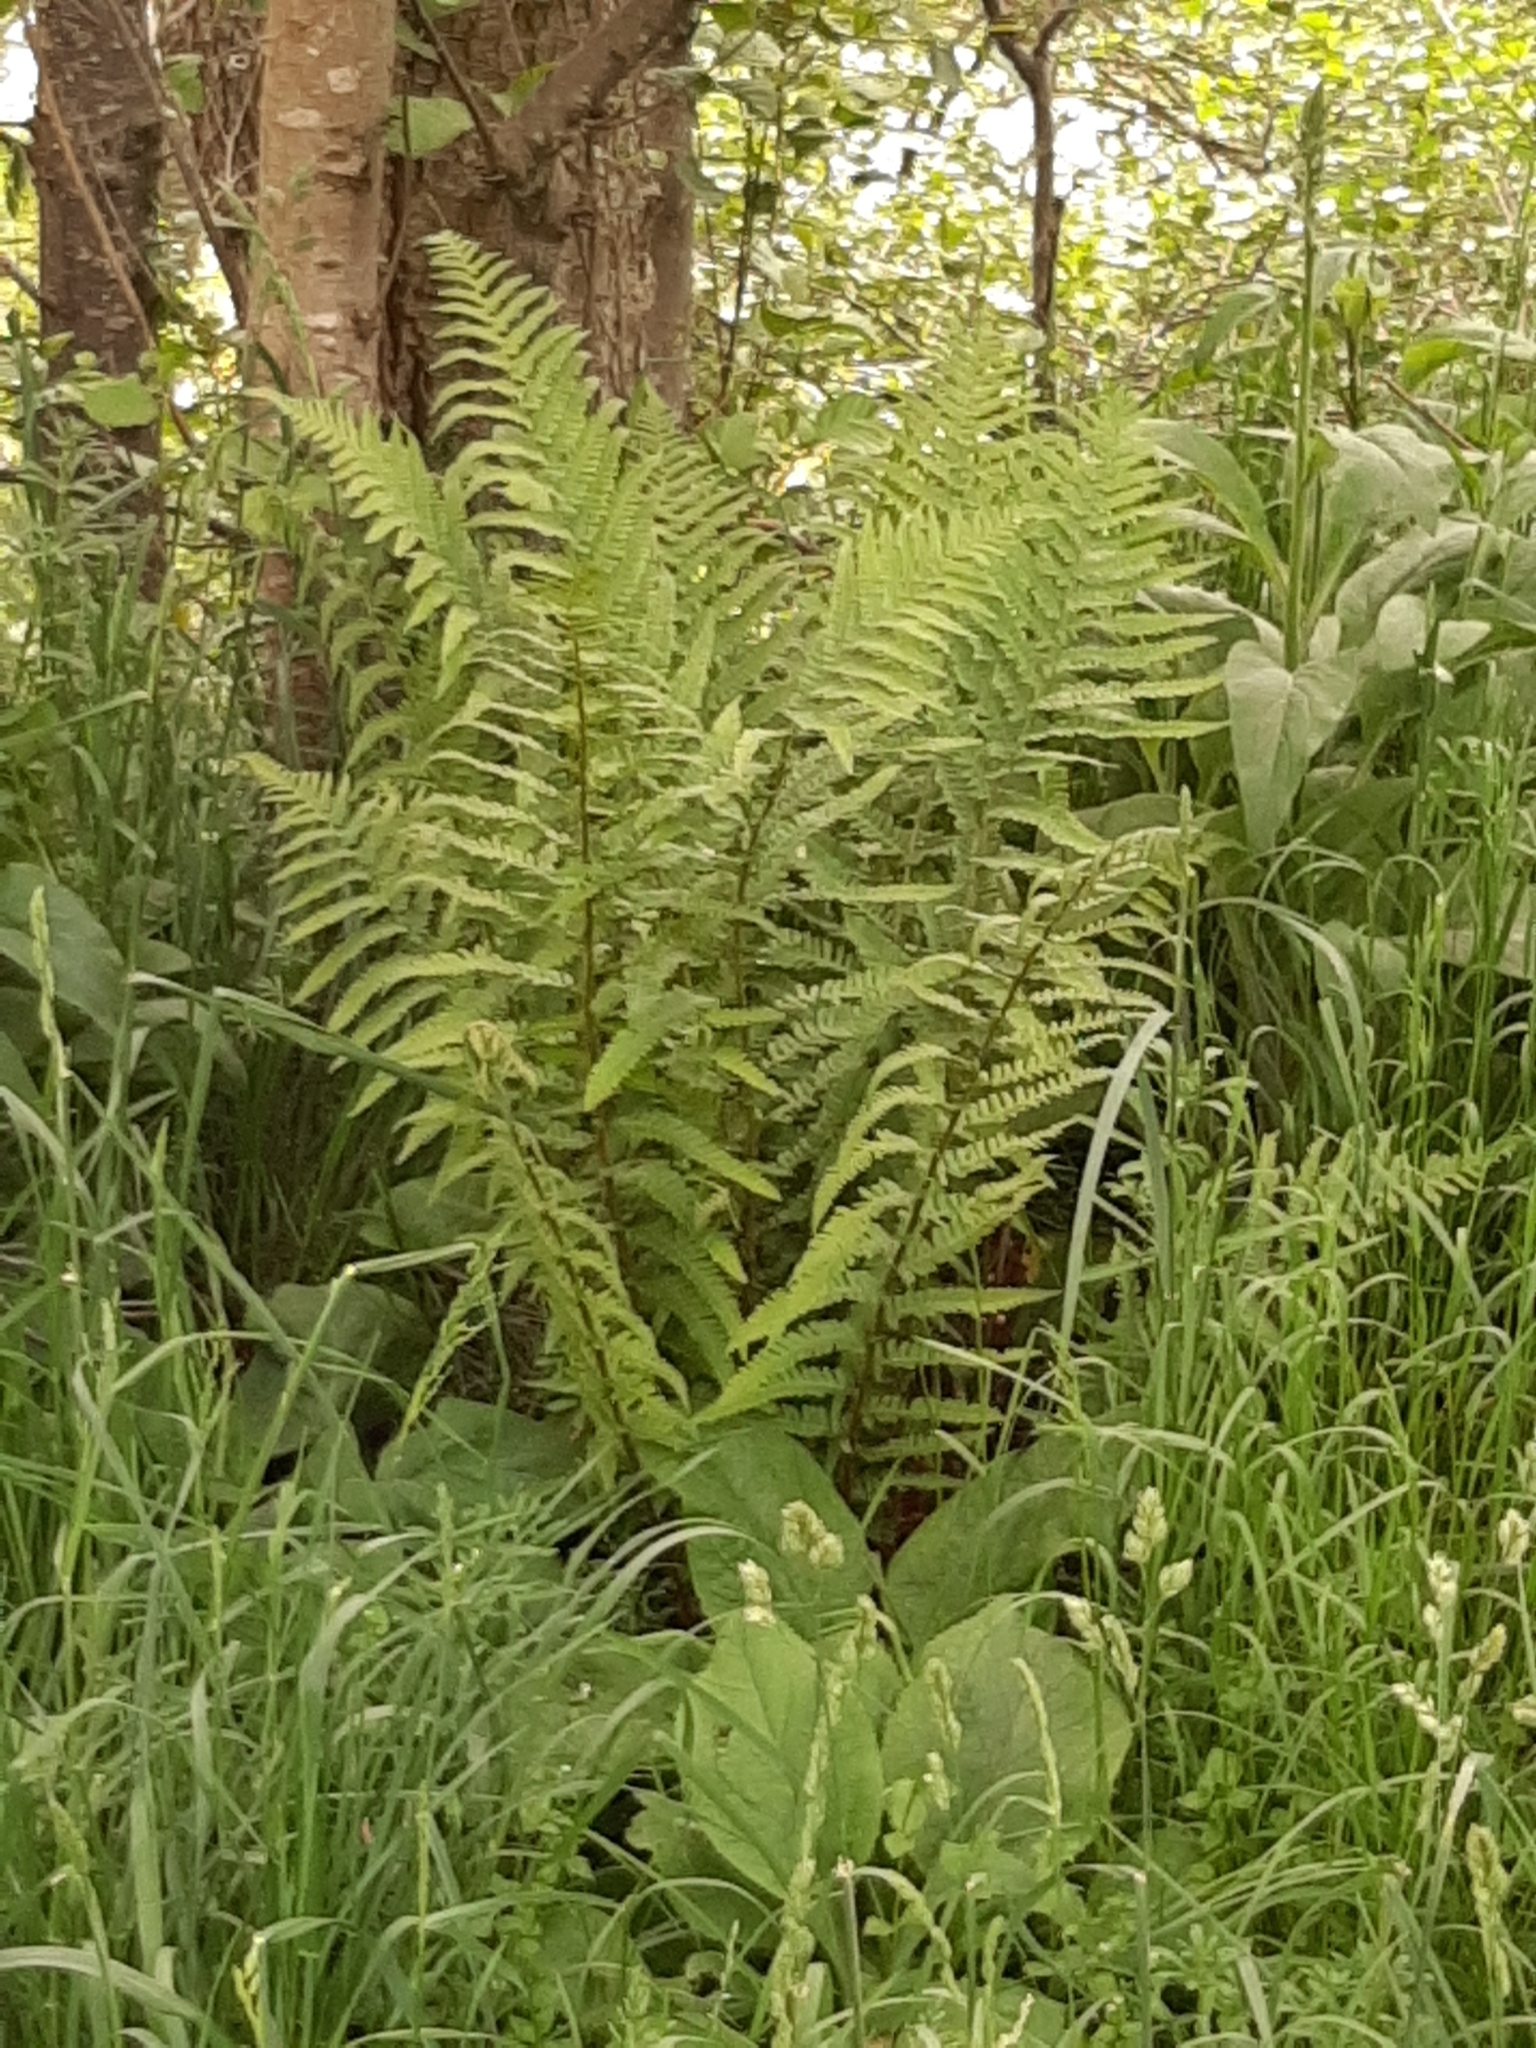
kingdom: Plantae
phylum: Tracheophyta
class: Polypodiopsida
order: Polypodiales
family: Dryopteridaceae
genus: Dryopteris
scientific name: Dryopteris filix-mas
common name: Male fern
